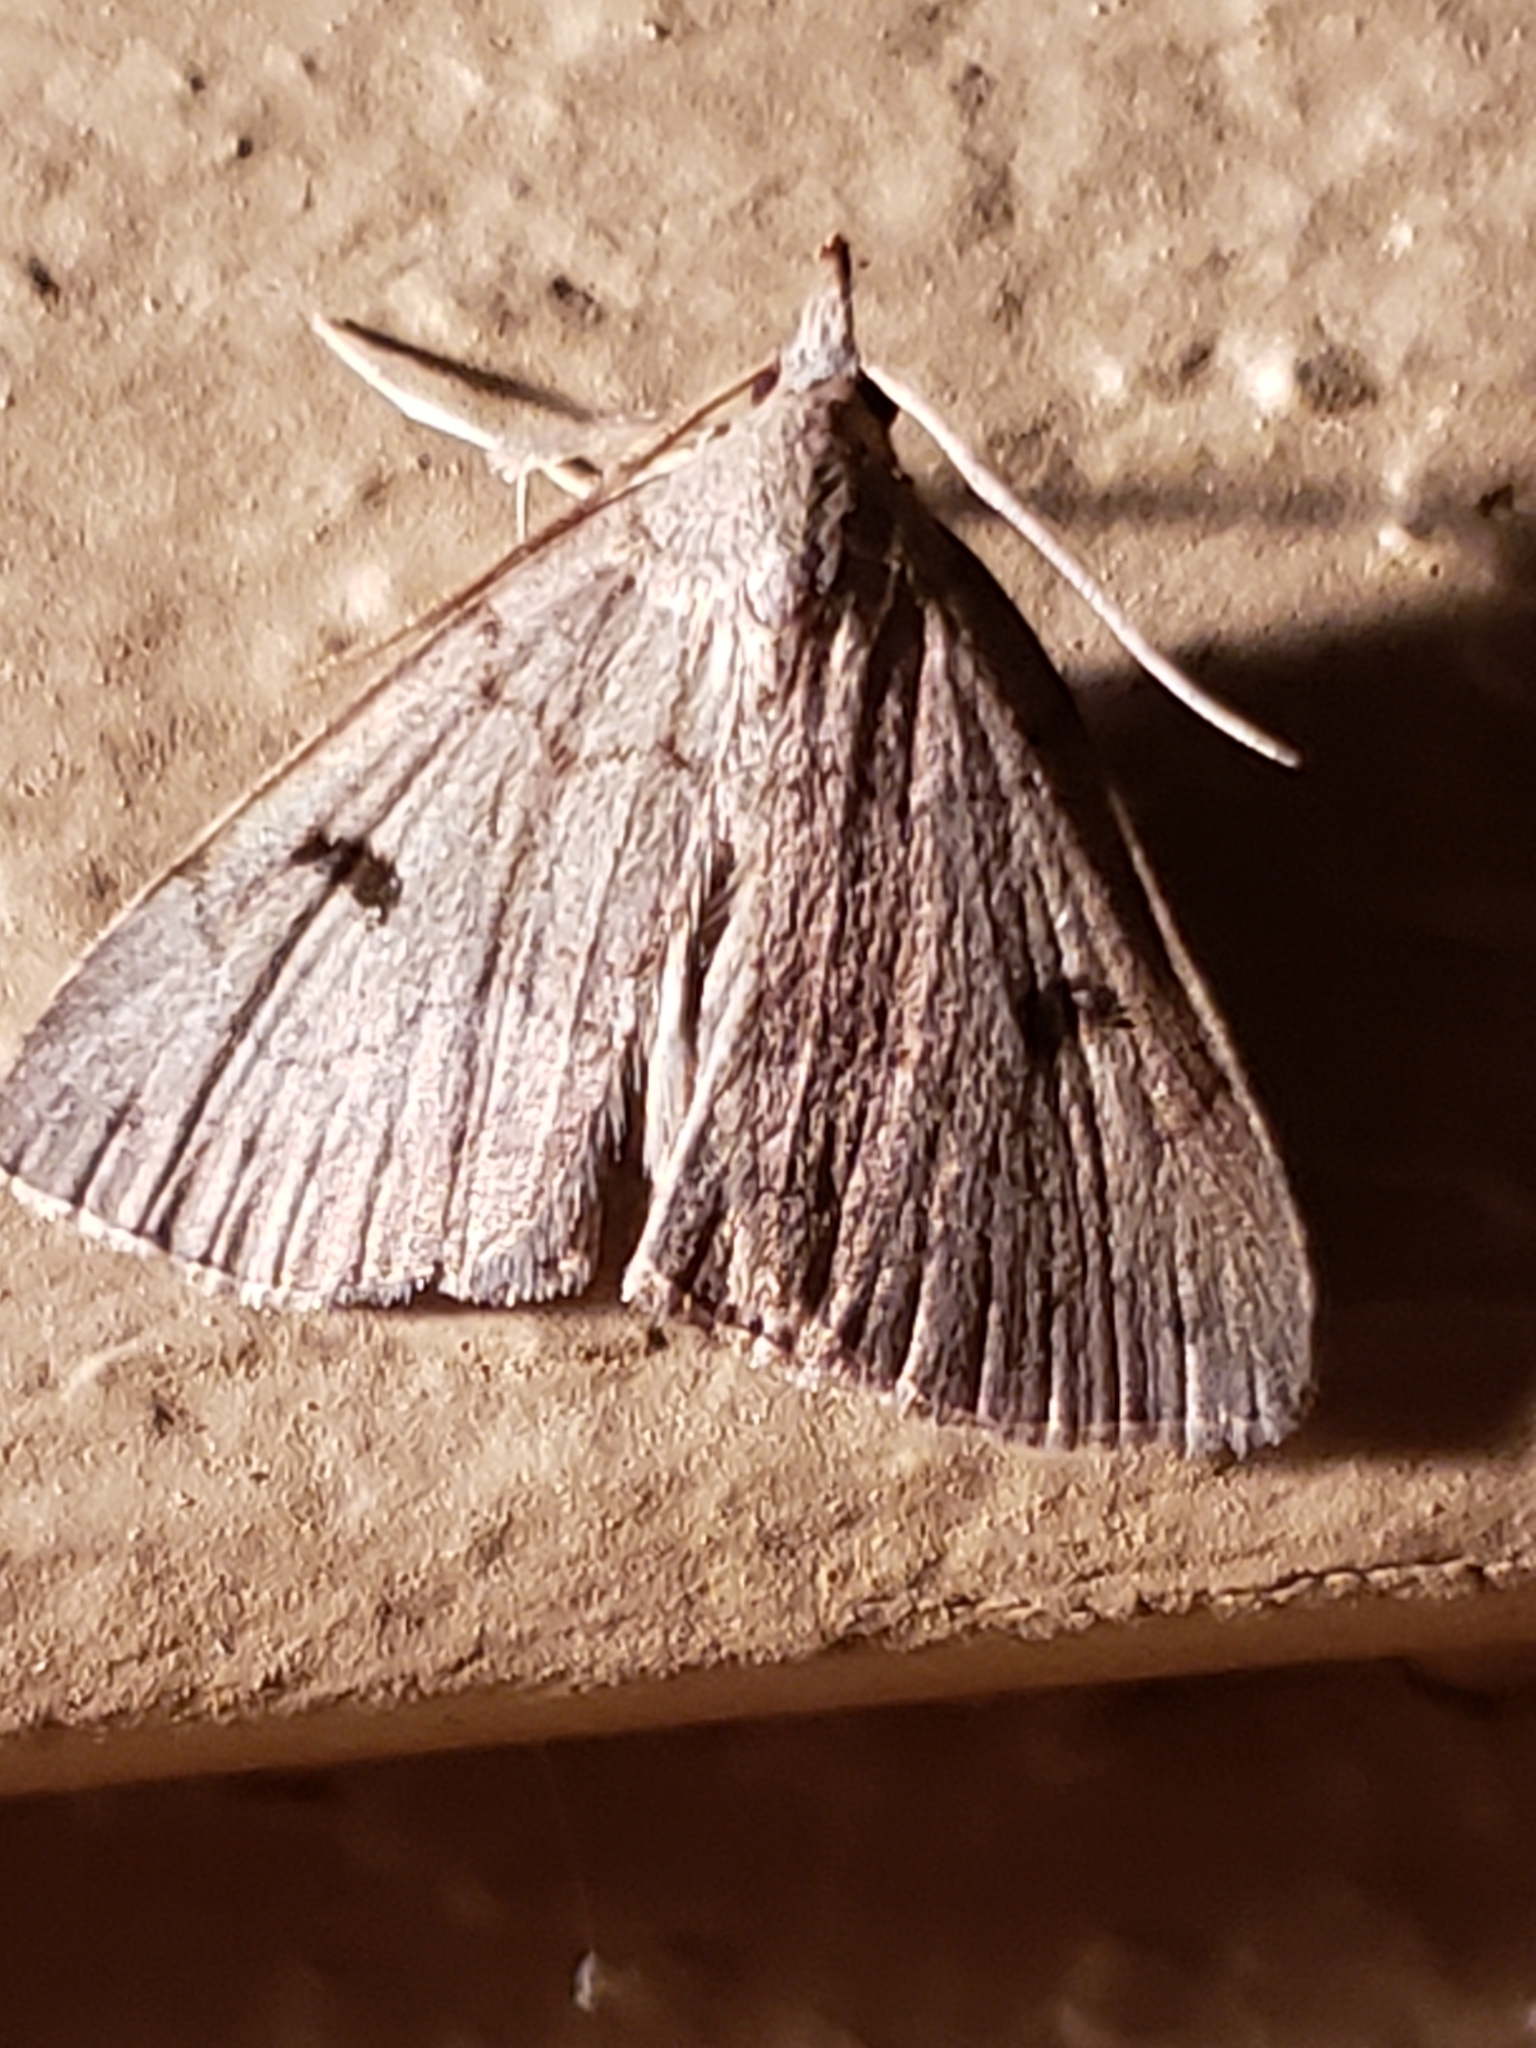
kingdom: Animalia
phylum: Arthropoda
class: Insecta
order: Lepidoptera
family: Erebidae
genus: Macrochilo
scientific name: Macrochilo morbidalis
